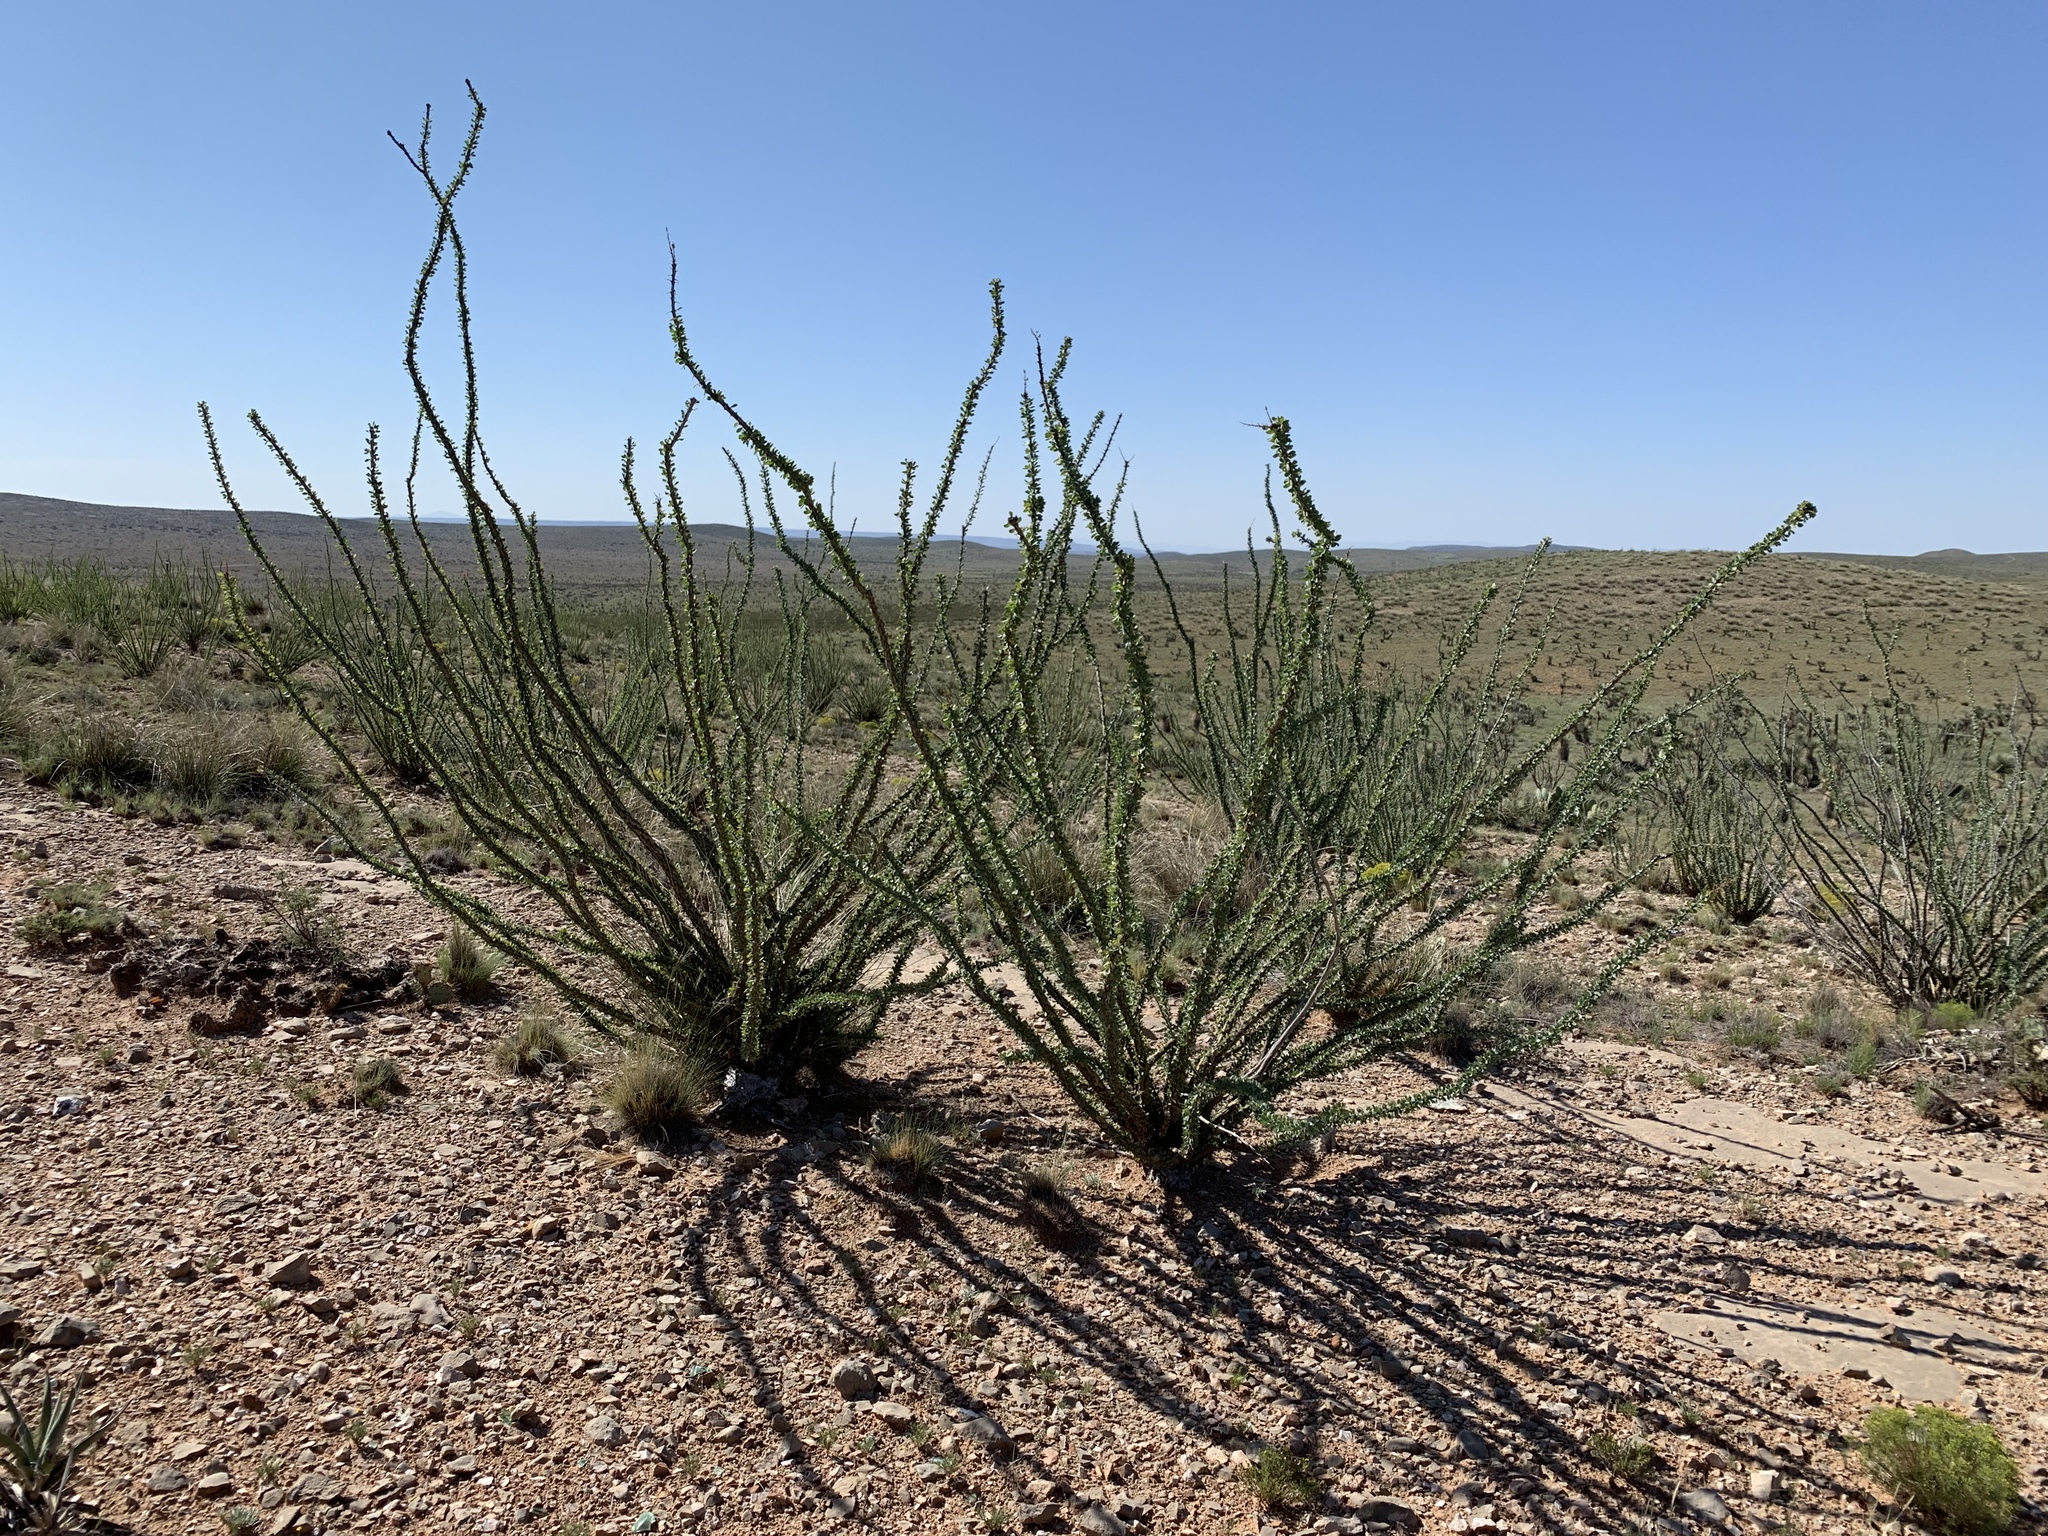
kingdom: Plantae
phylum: Tracheophyta
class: Magnoliopsida
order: Ericales
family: Fouquieriaceae
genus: Fouquieria
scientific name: Fouquieria splendens
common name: Vine-cactus
